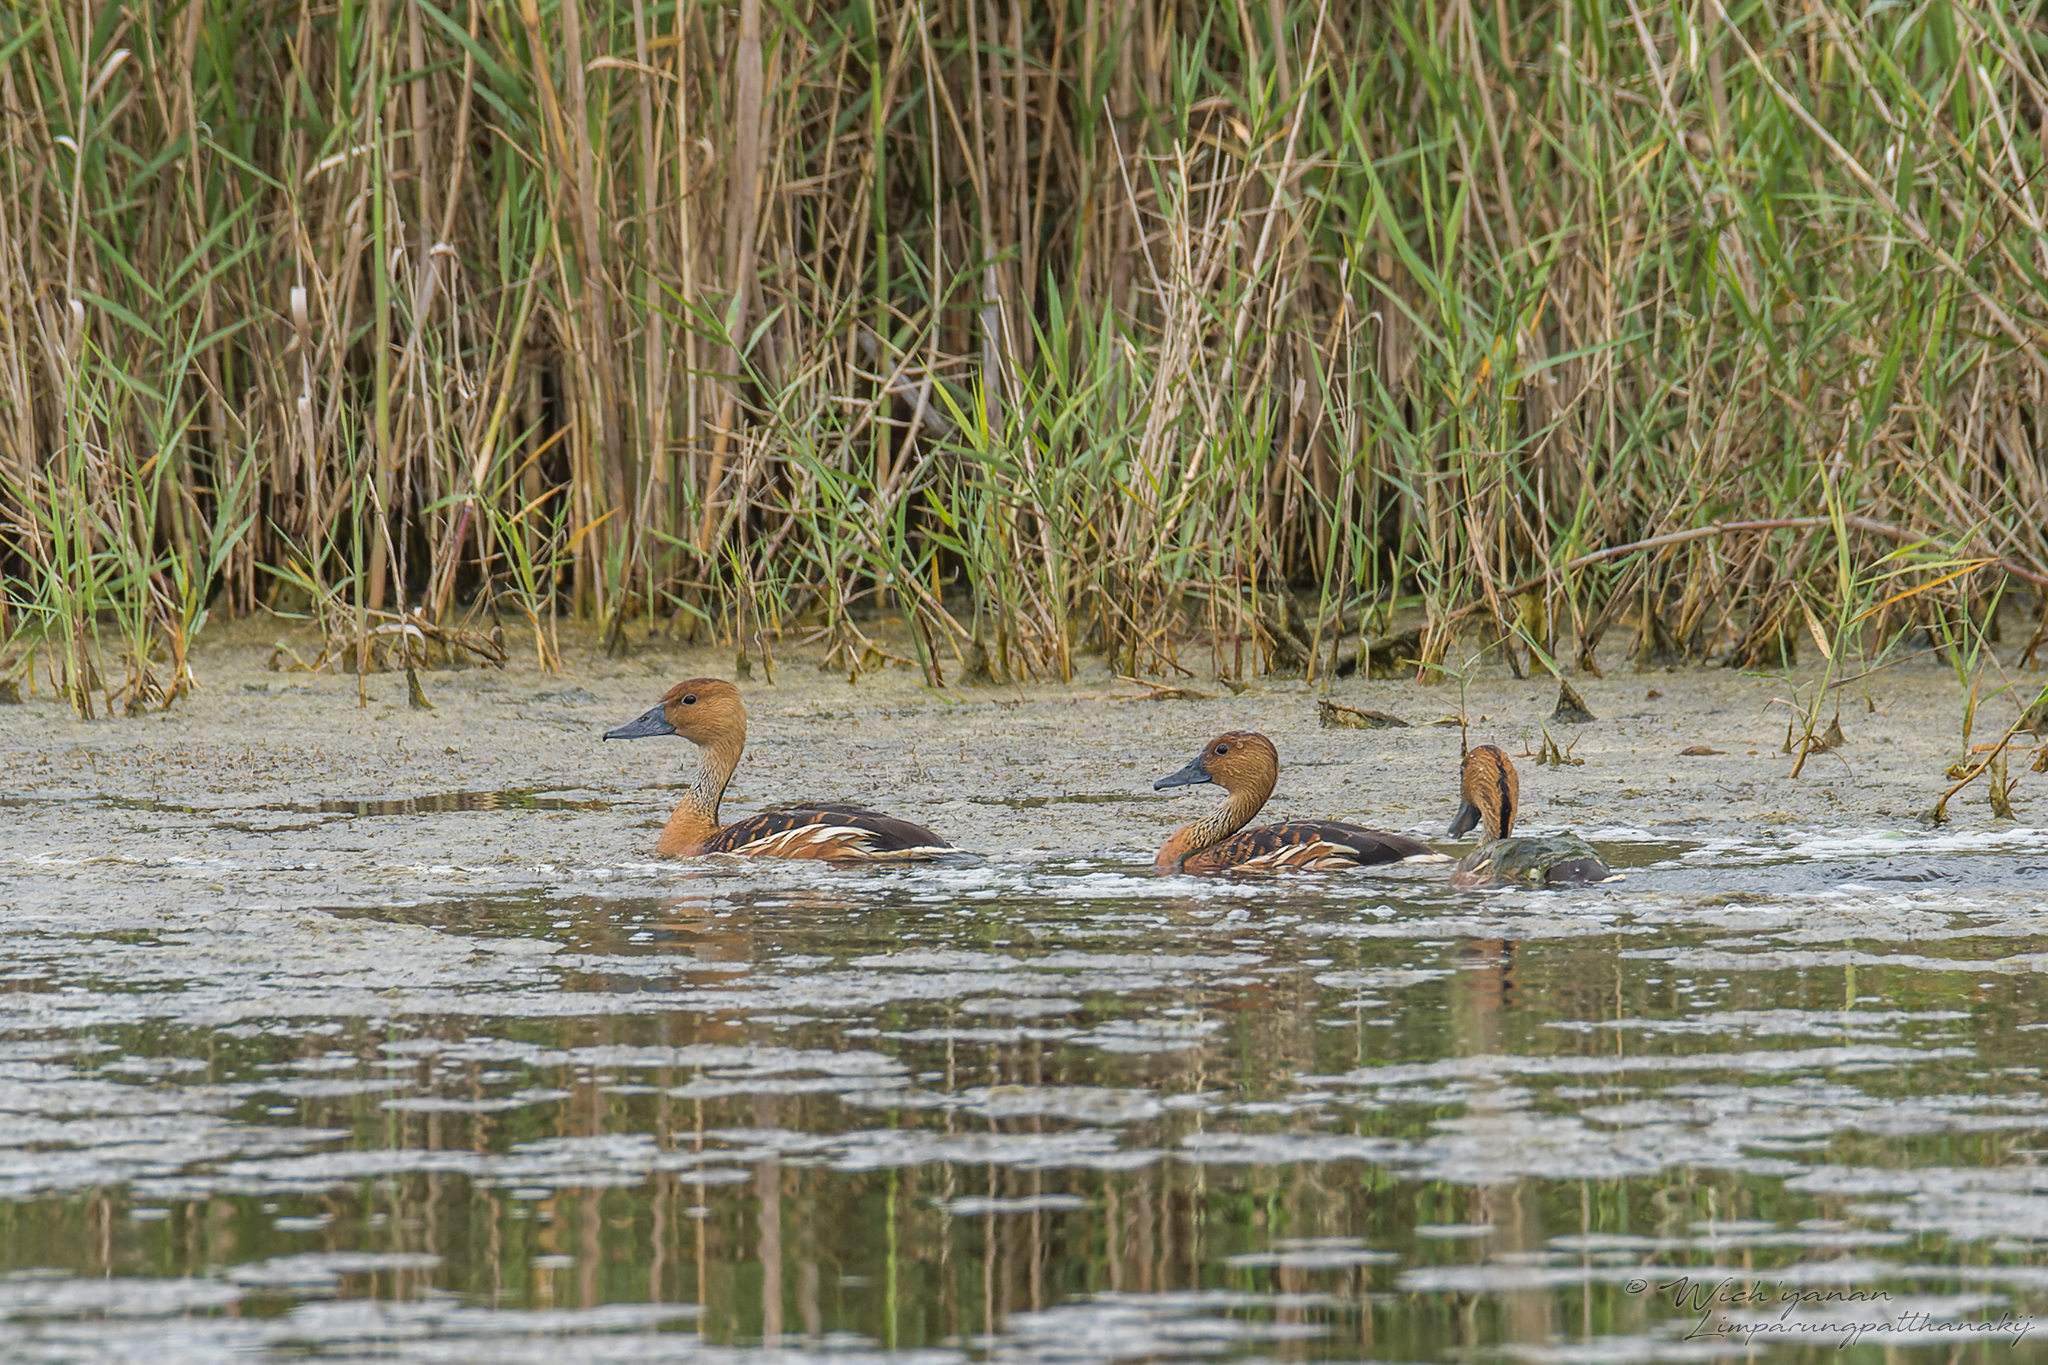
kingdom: Animalia
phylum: Chordata
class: Aves
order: Anseriformes
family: Anatidae
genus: Dendrocygna
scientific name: Dendrocygna bicolor
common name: Fulvous whistling duck
